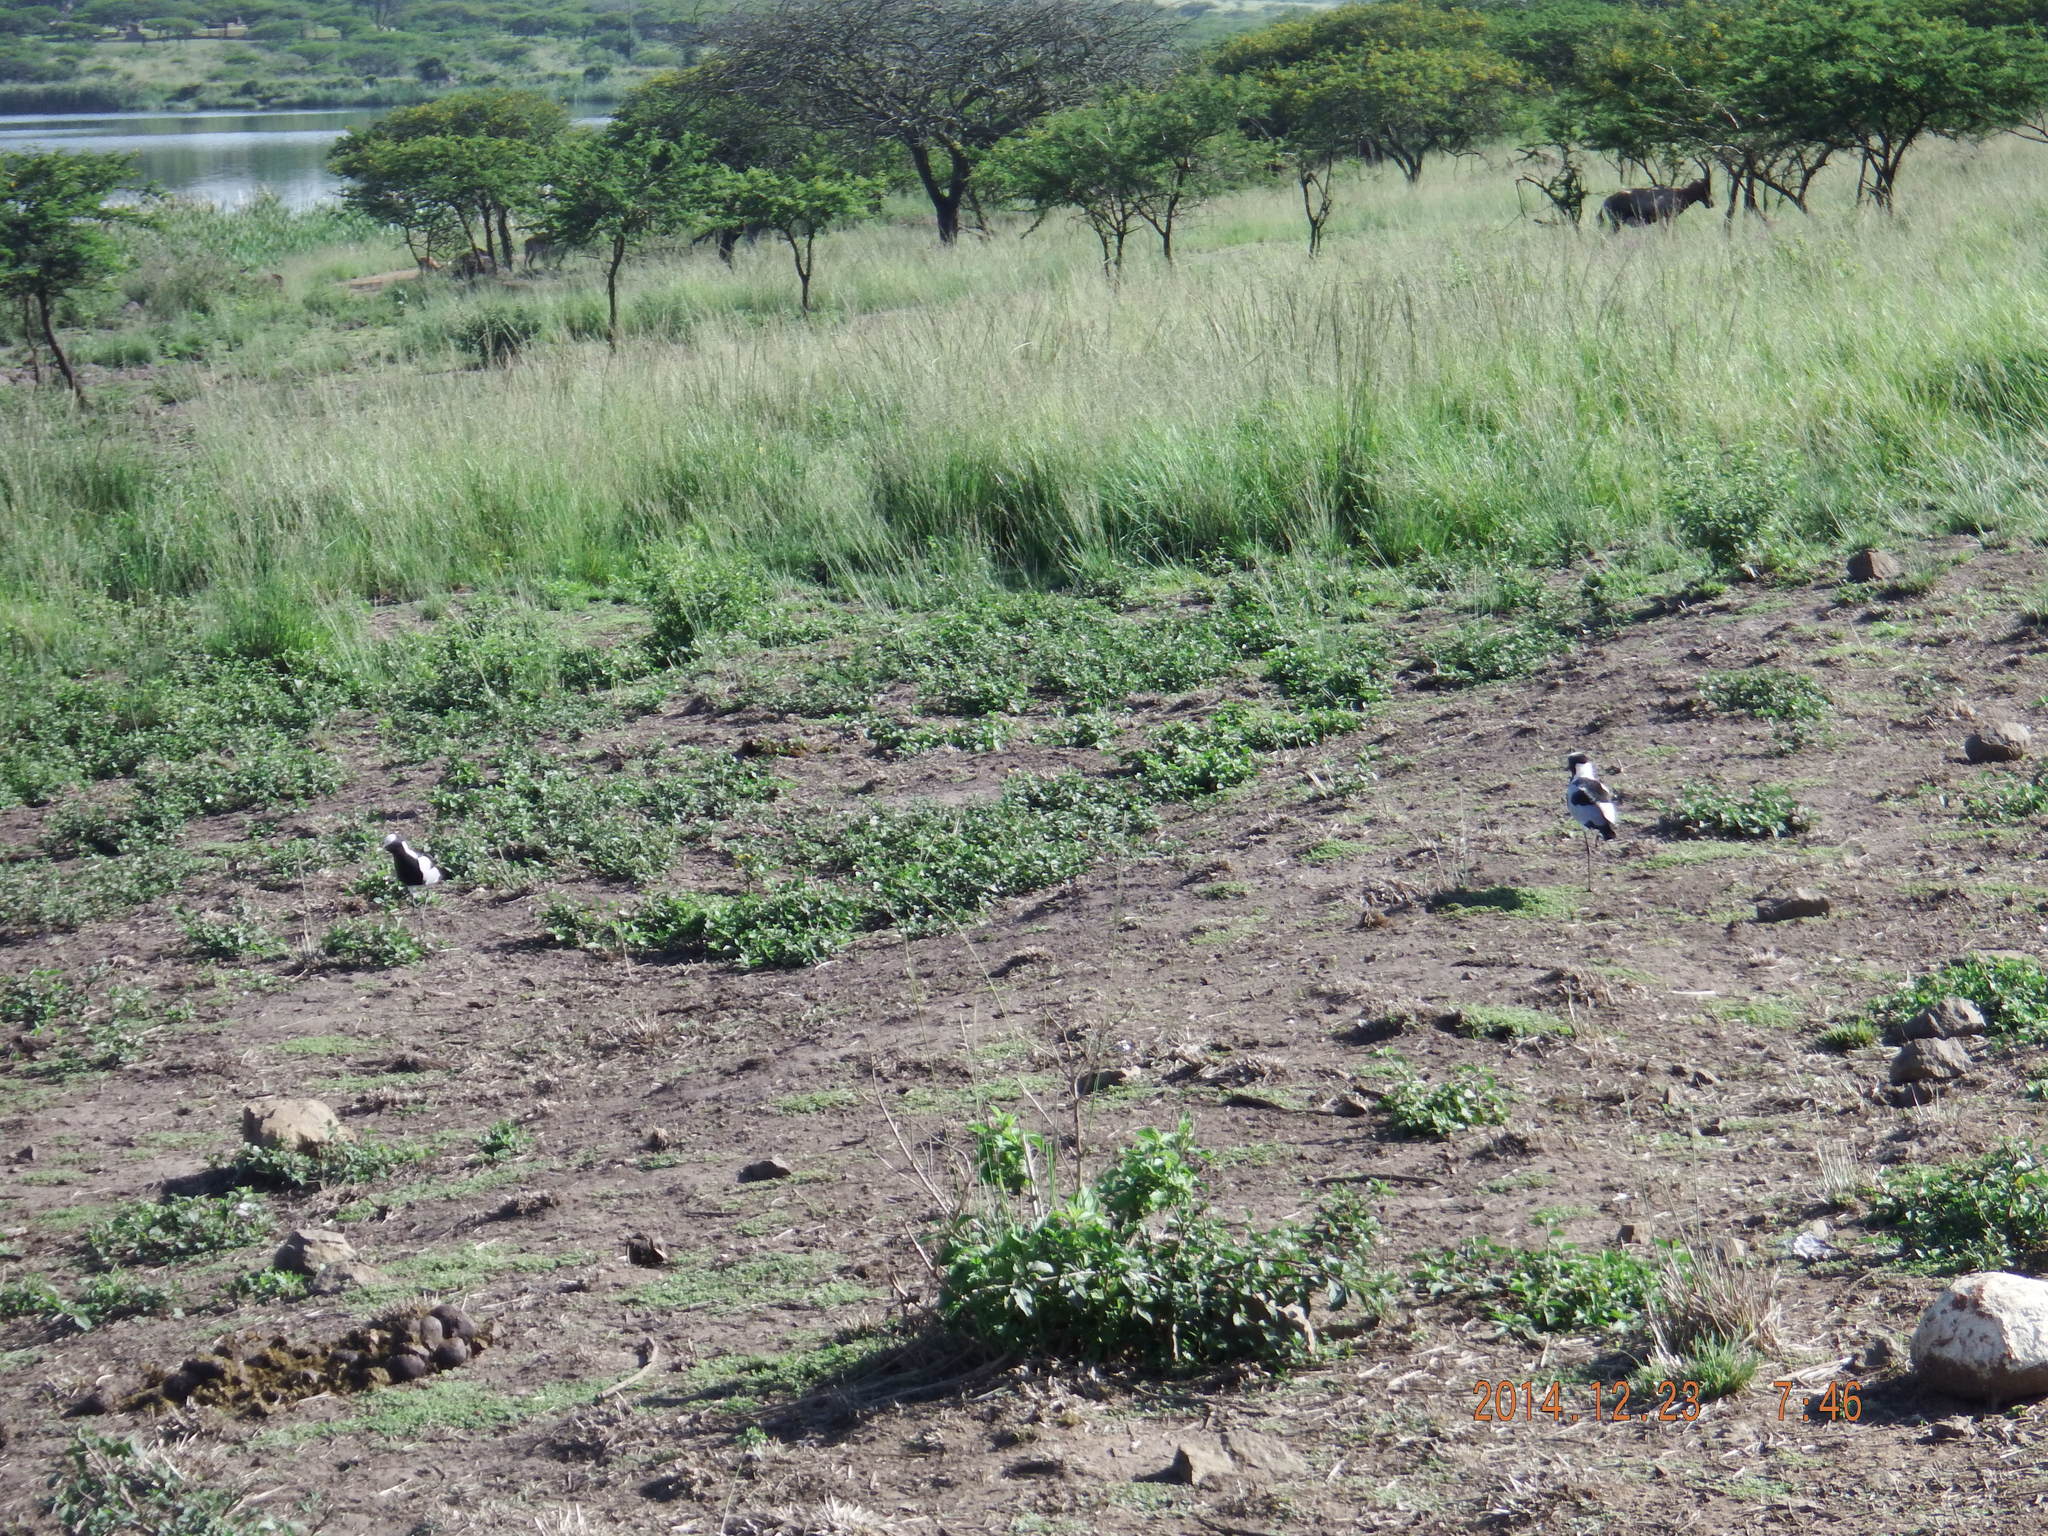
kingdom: Animalia
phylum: Chordata
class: Aves
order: Charadriiformes
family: Charadriidae
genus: Vanellus
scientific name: Vanellus armatus
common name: Blacksmith lapwing
